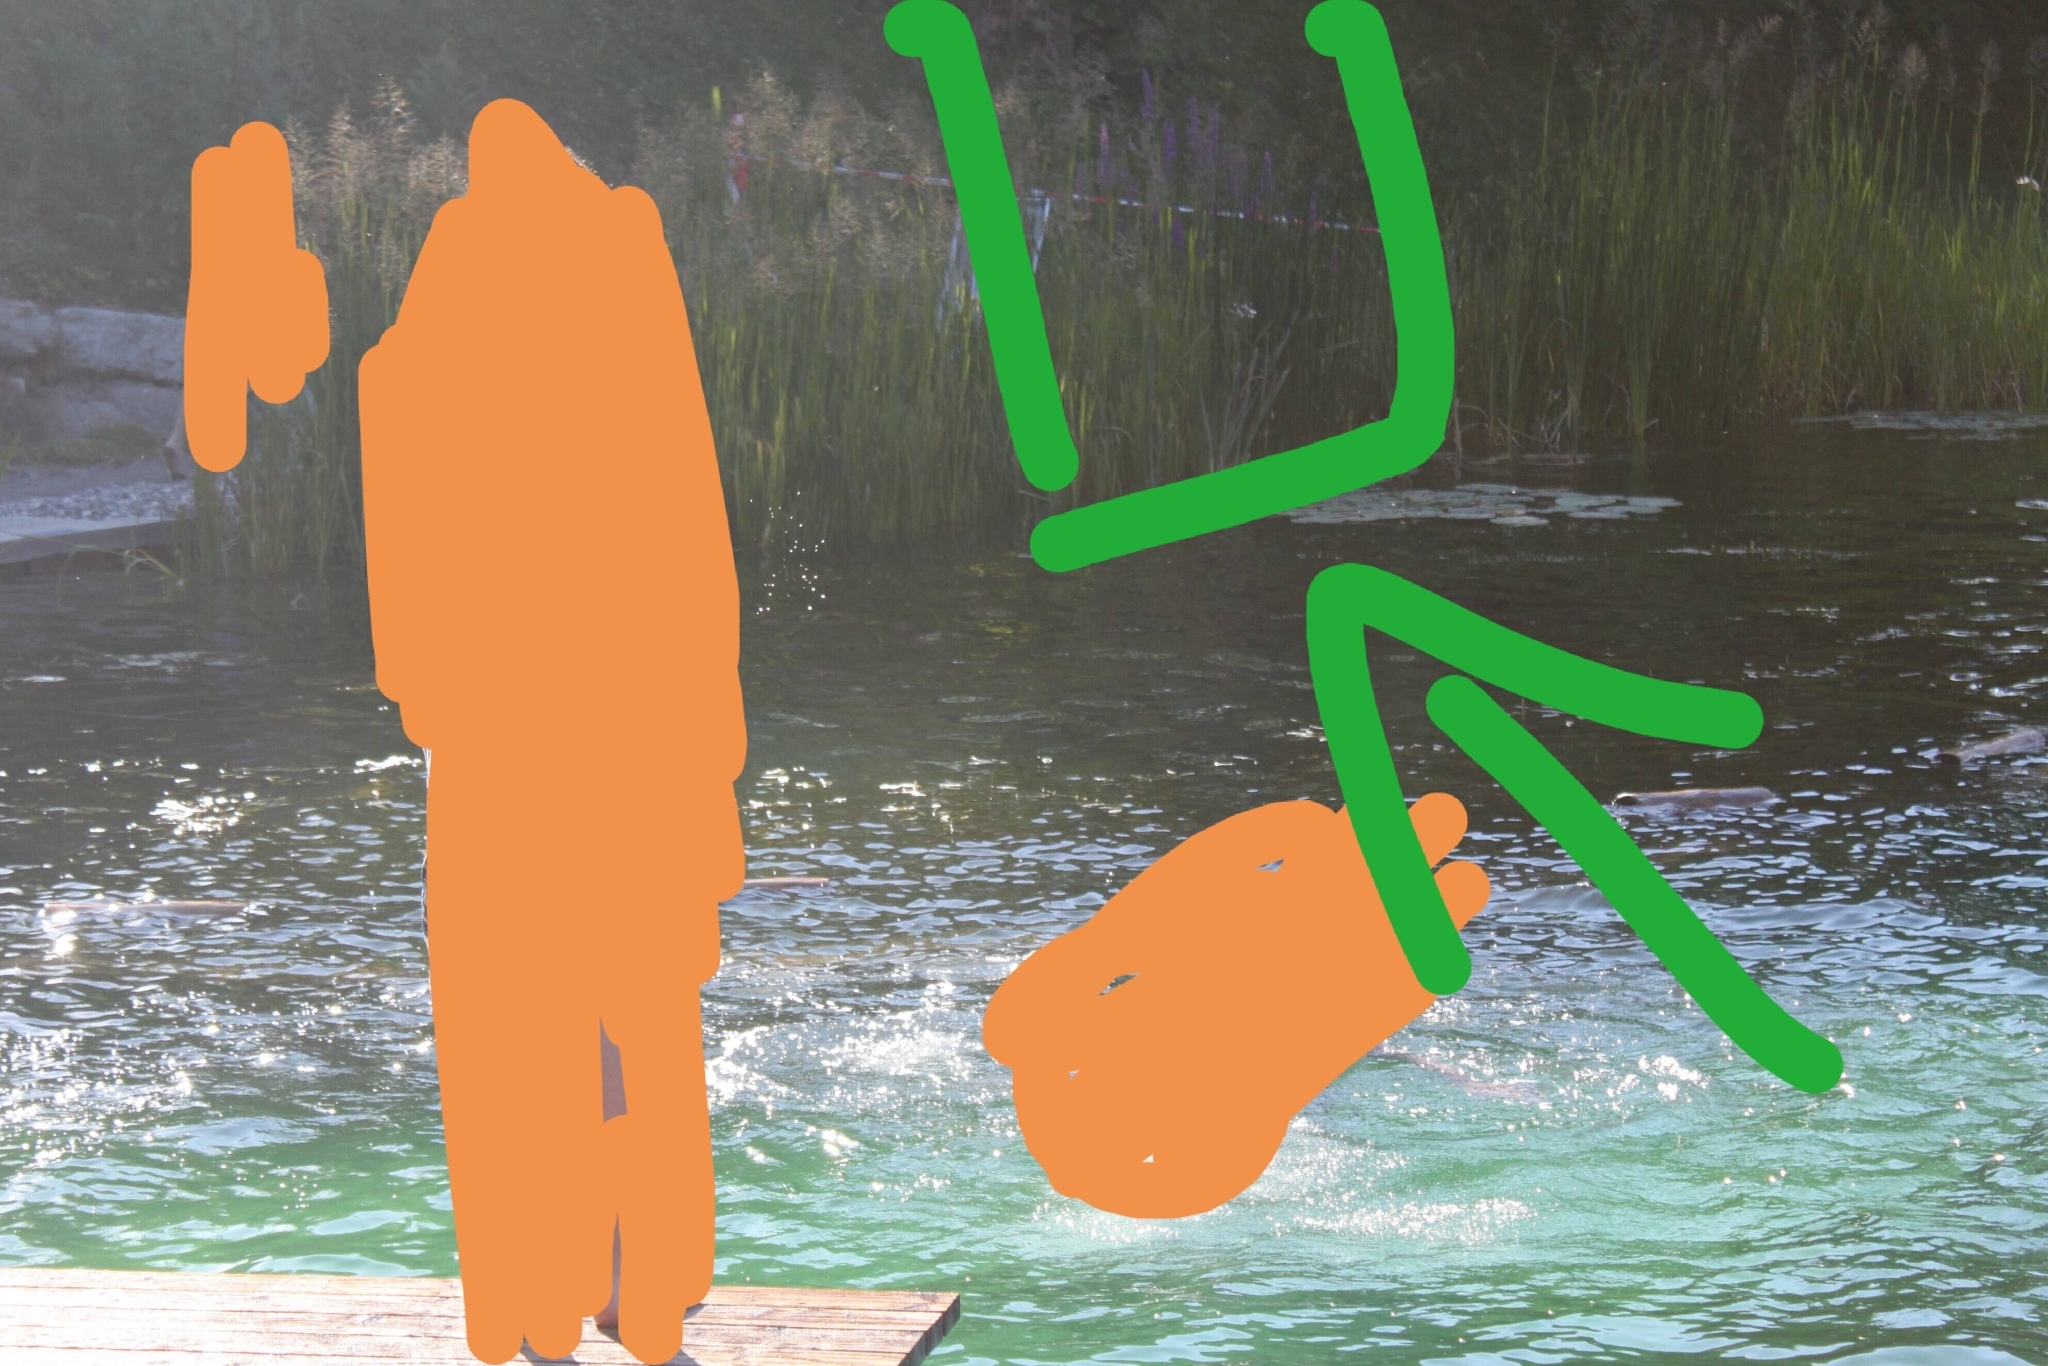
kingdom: Plantae
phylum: Tracheophyta
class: Magnoliopsida
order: Myrtales
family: Lythraceae
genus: Lythrum
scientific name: Lythrum salicaria
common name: Purple loosestrife
